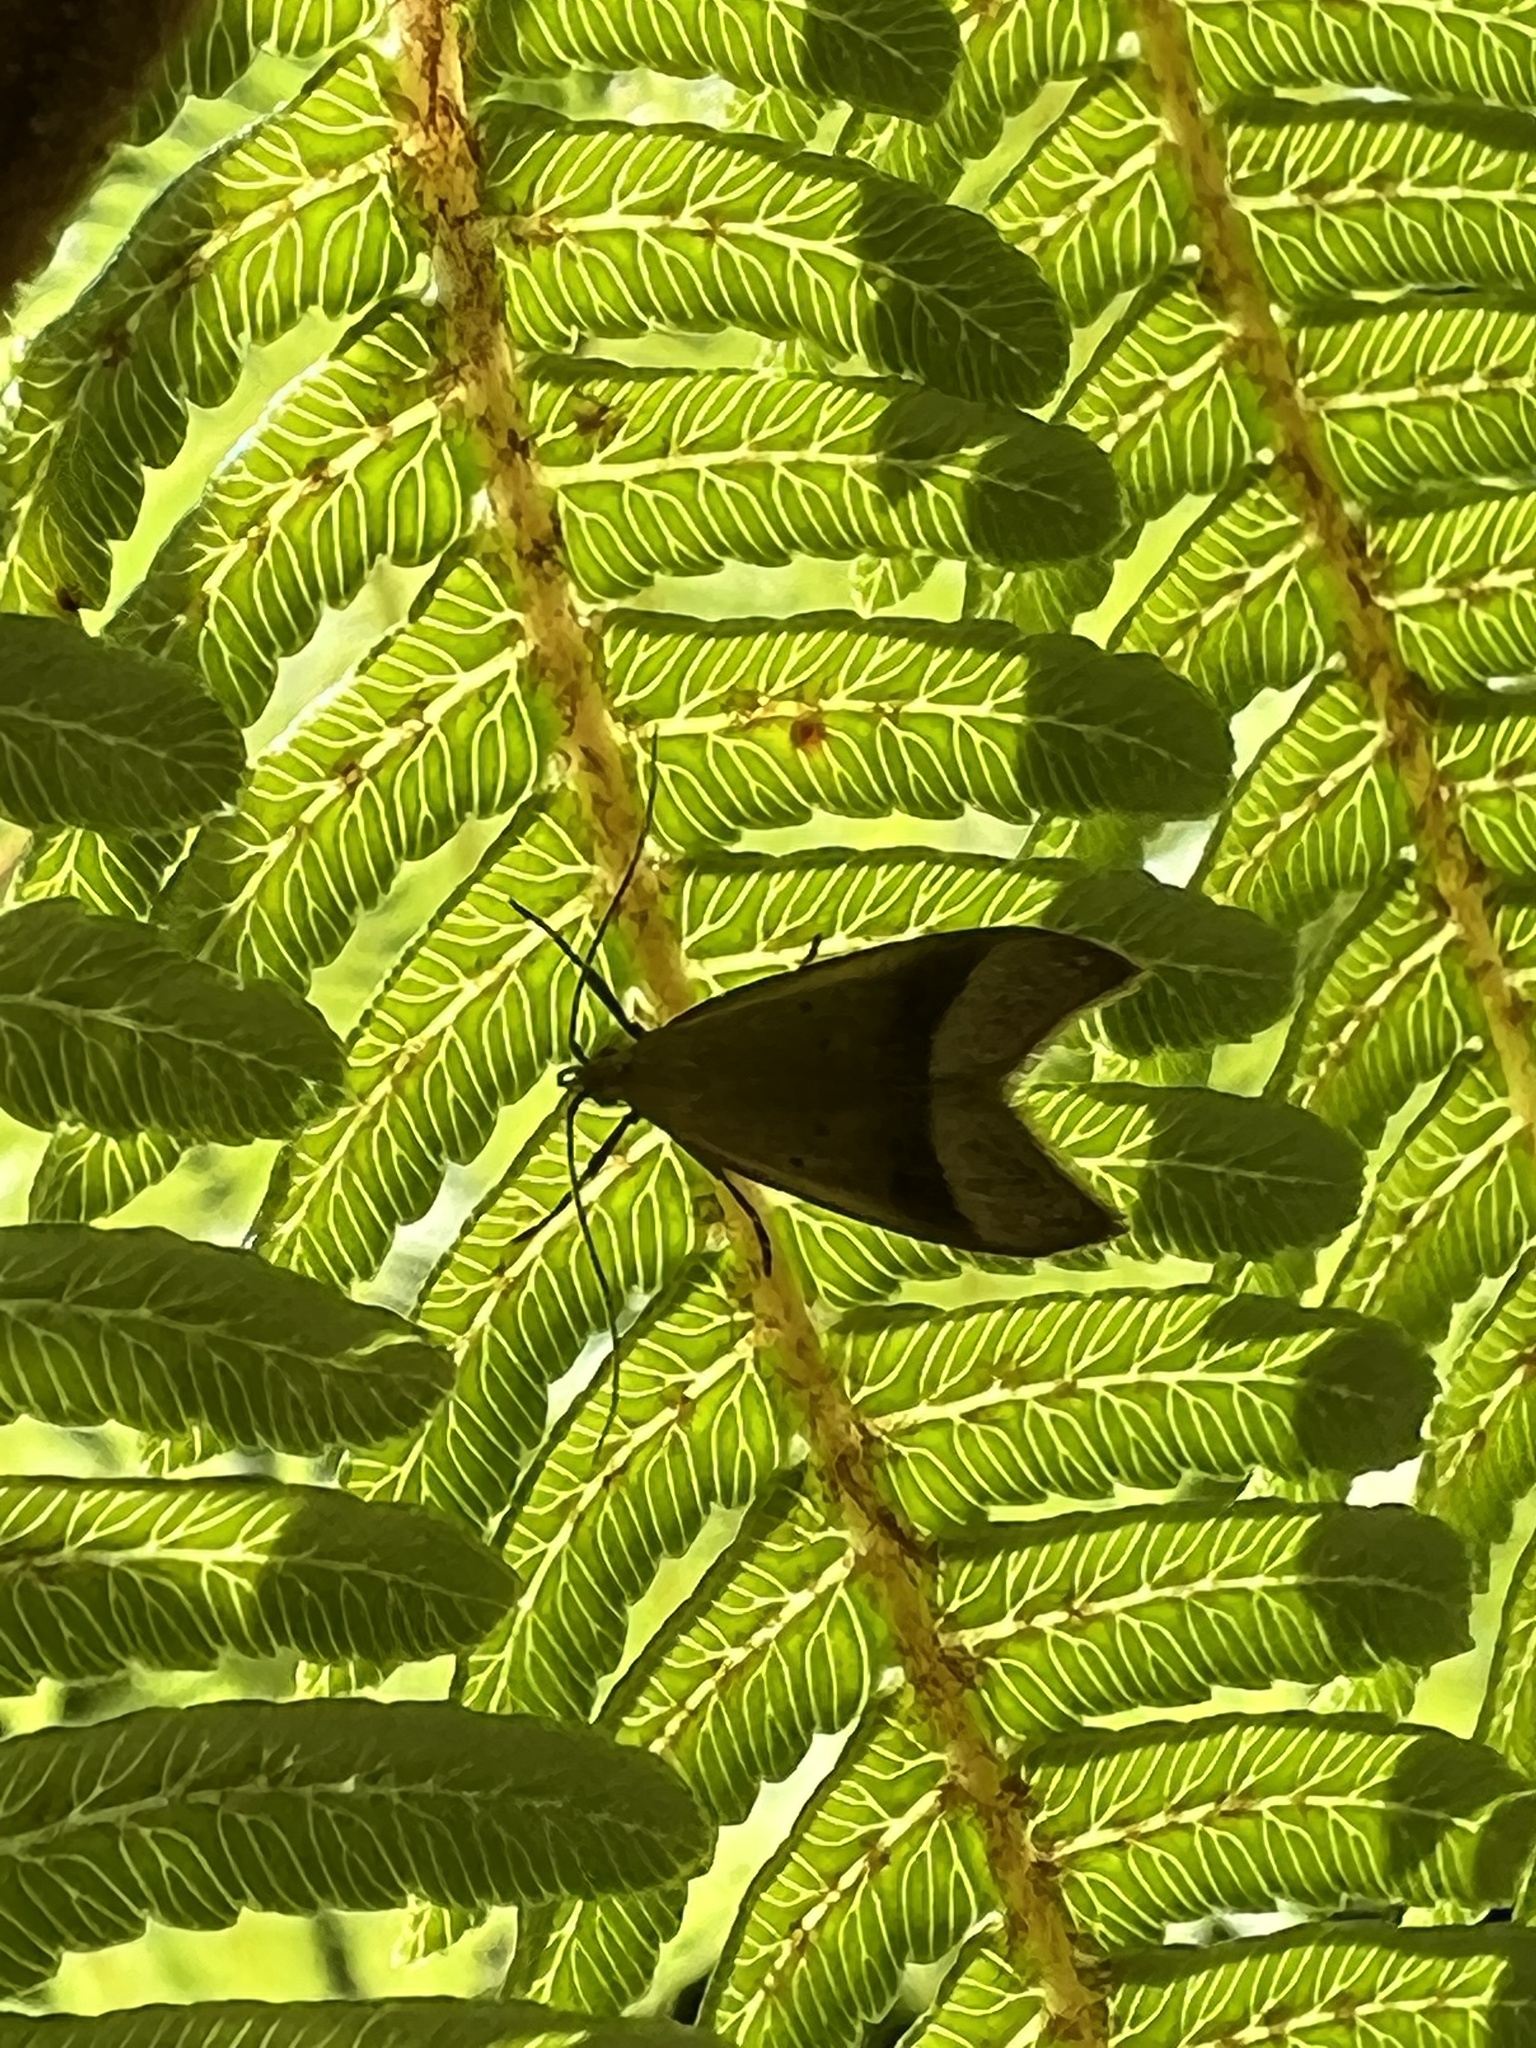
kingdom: Animalia
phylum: Arthropoda
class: Insecta
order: Lepidoptera
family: Oecophoridae
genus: Gymnobathra
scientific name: Gymnobathra hyetodes
